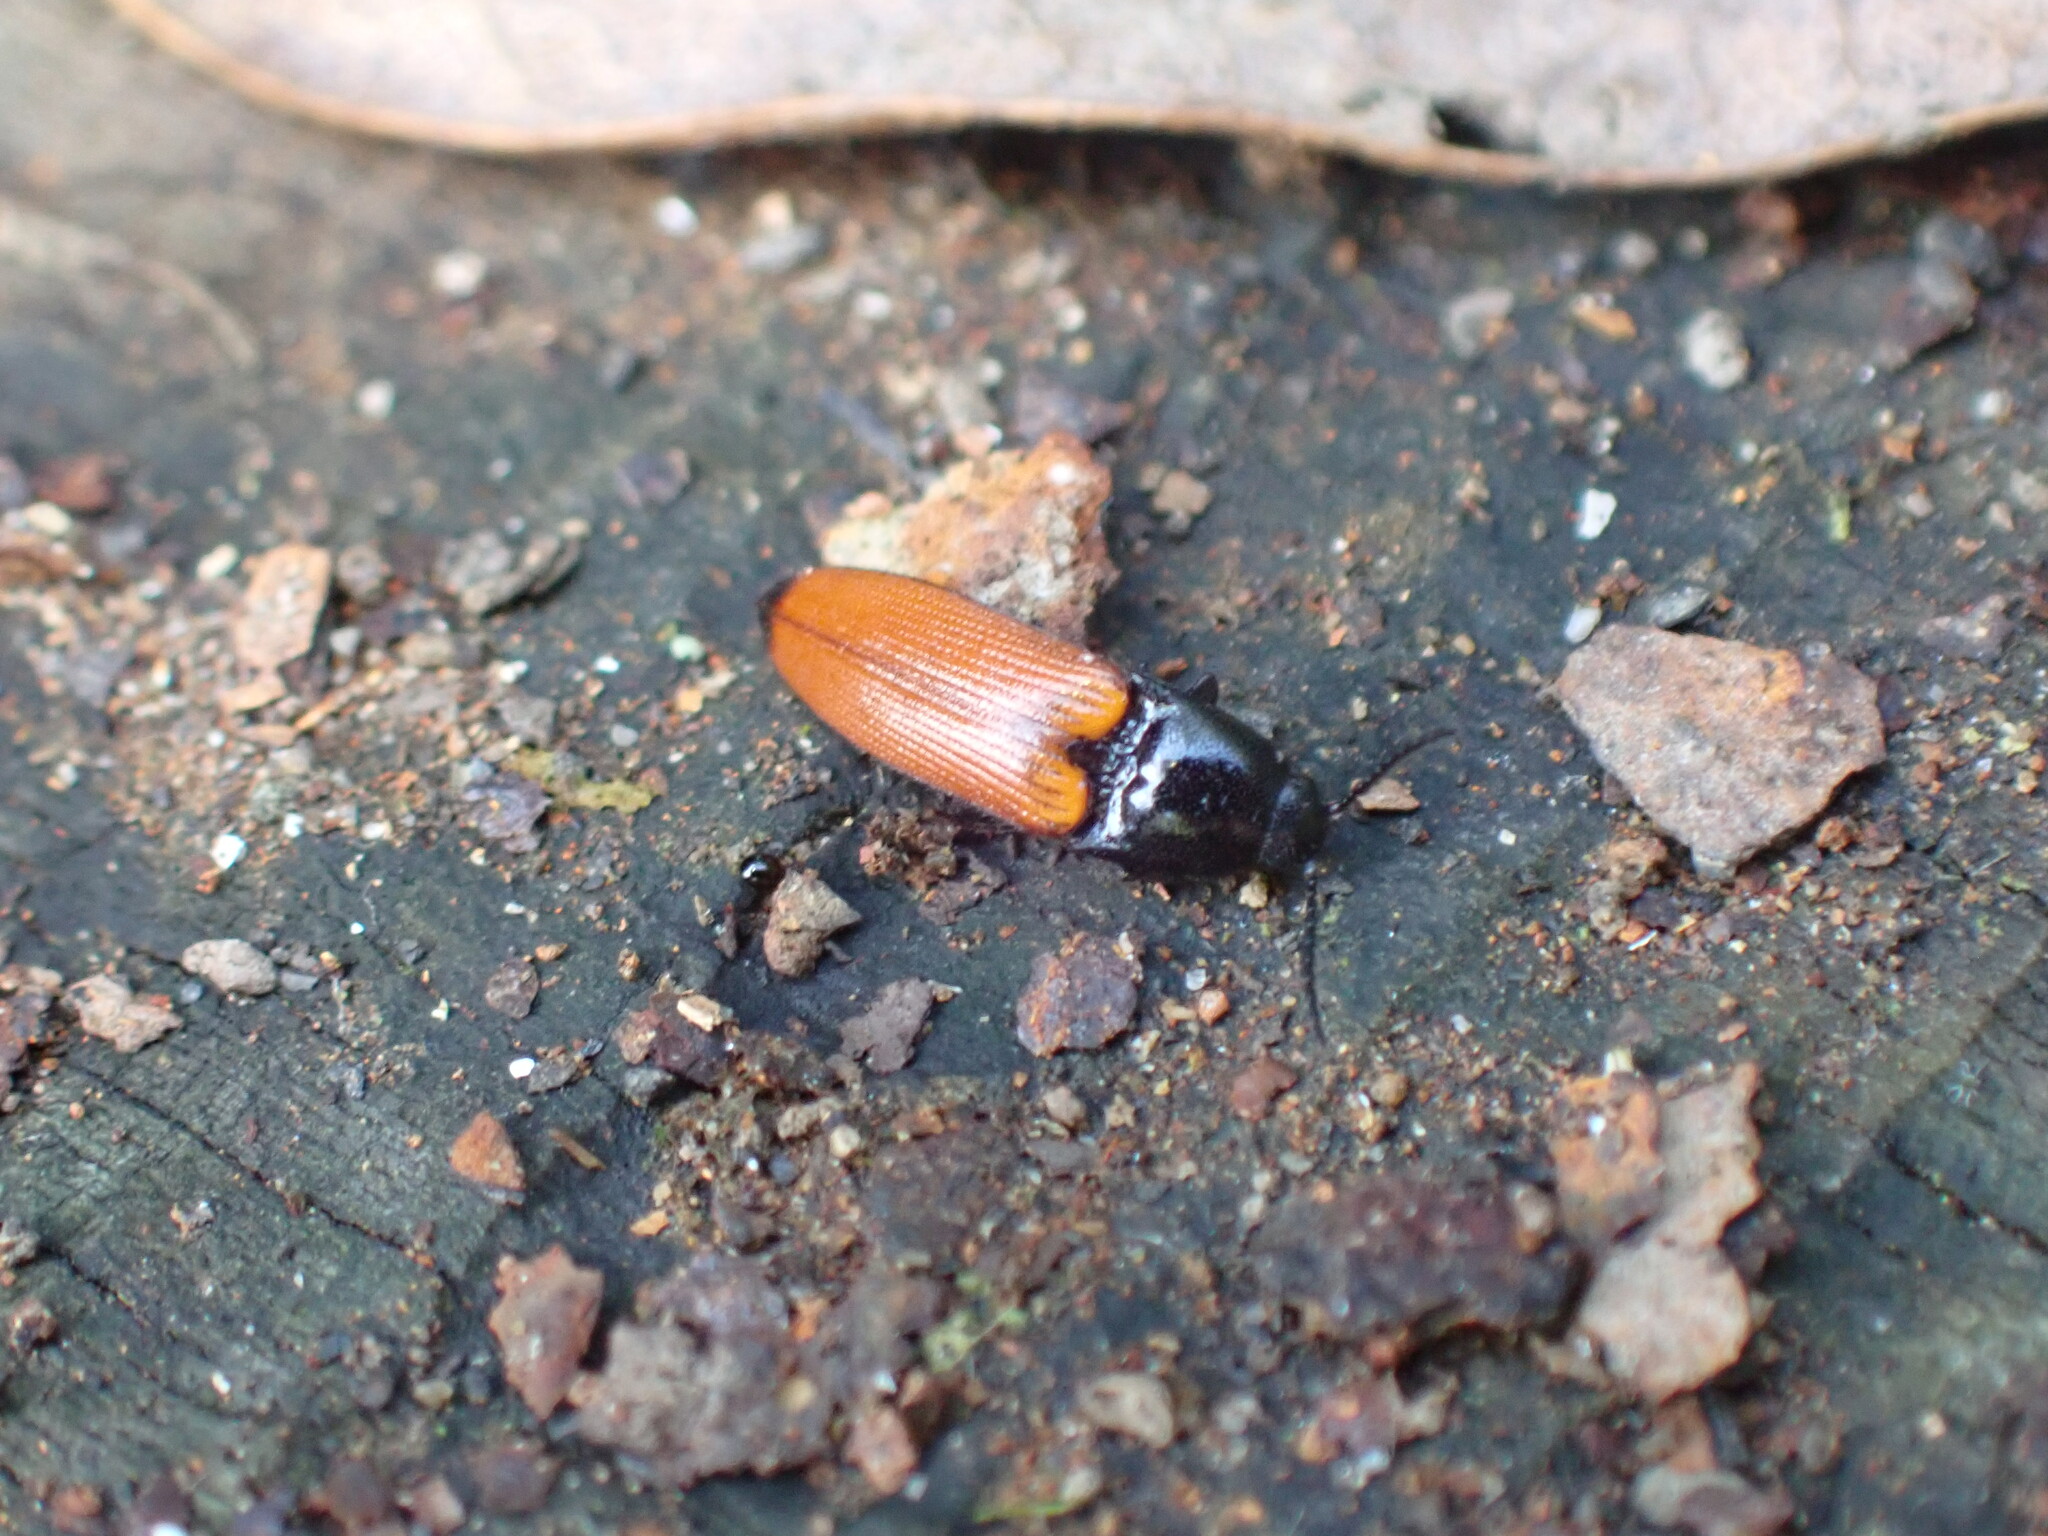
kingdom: Animalia
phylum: Arthropoda
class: Insecta
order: Coleoptera
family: Elateridae
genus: Ampedus
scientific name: Ampedus elongatulus
